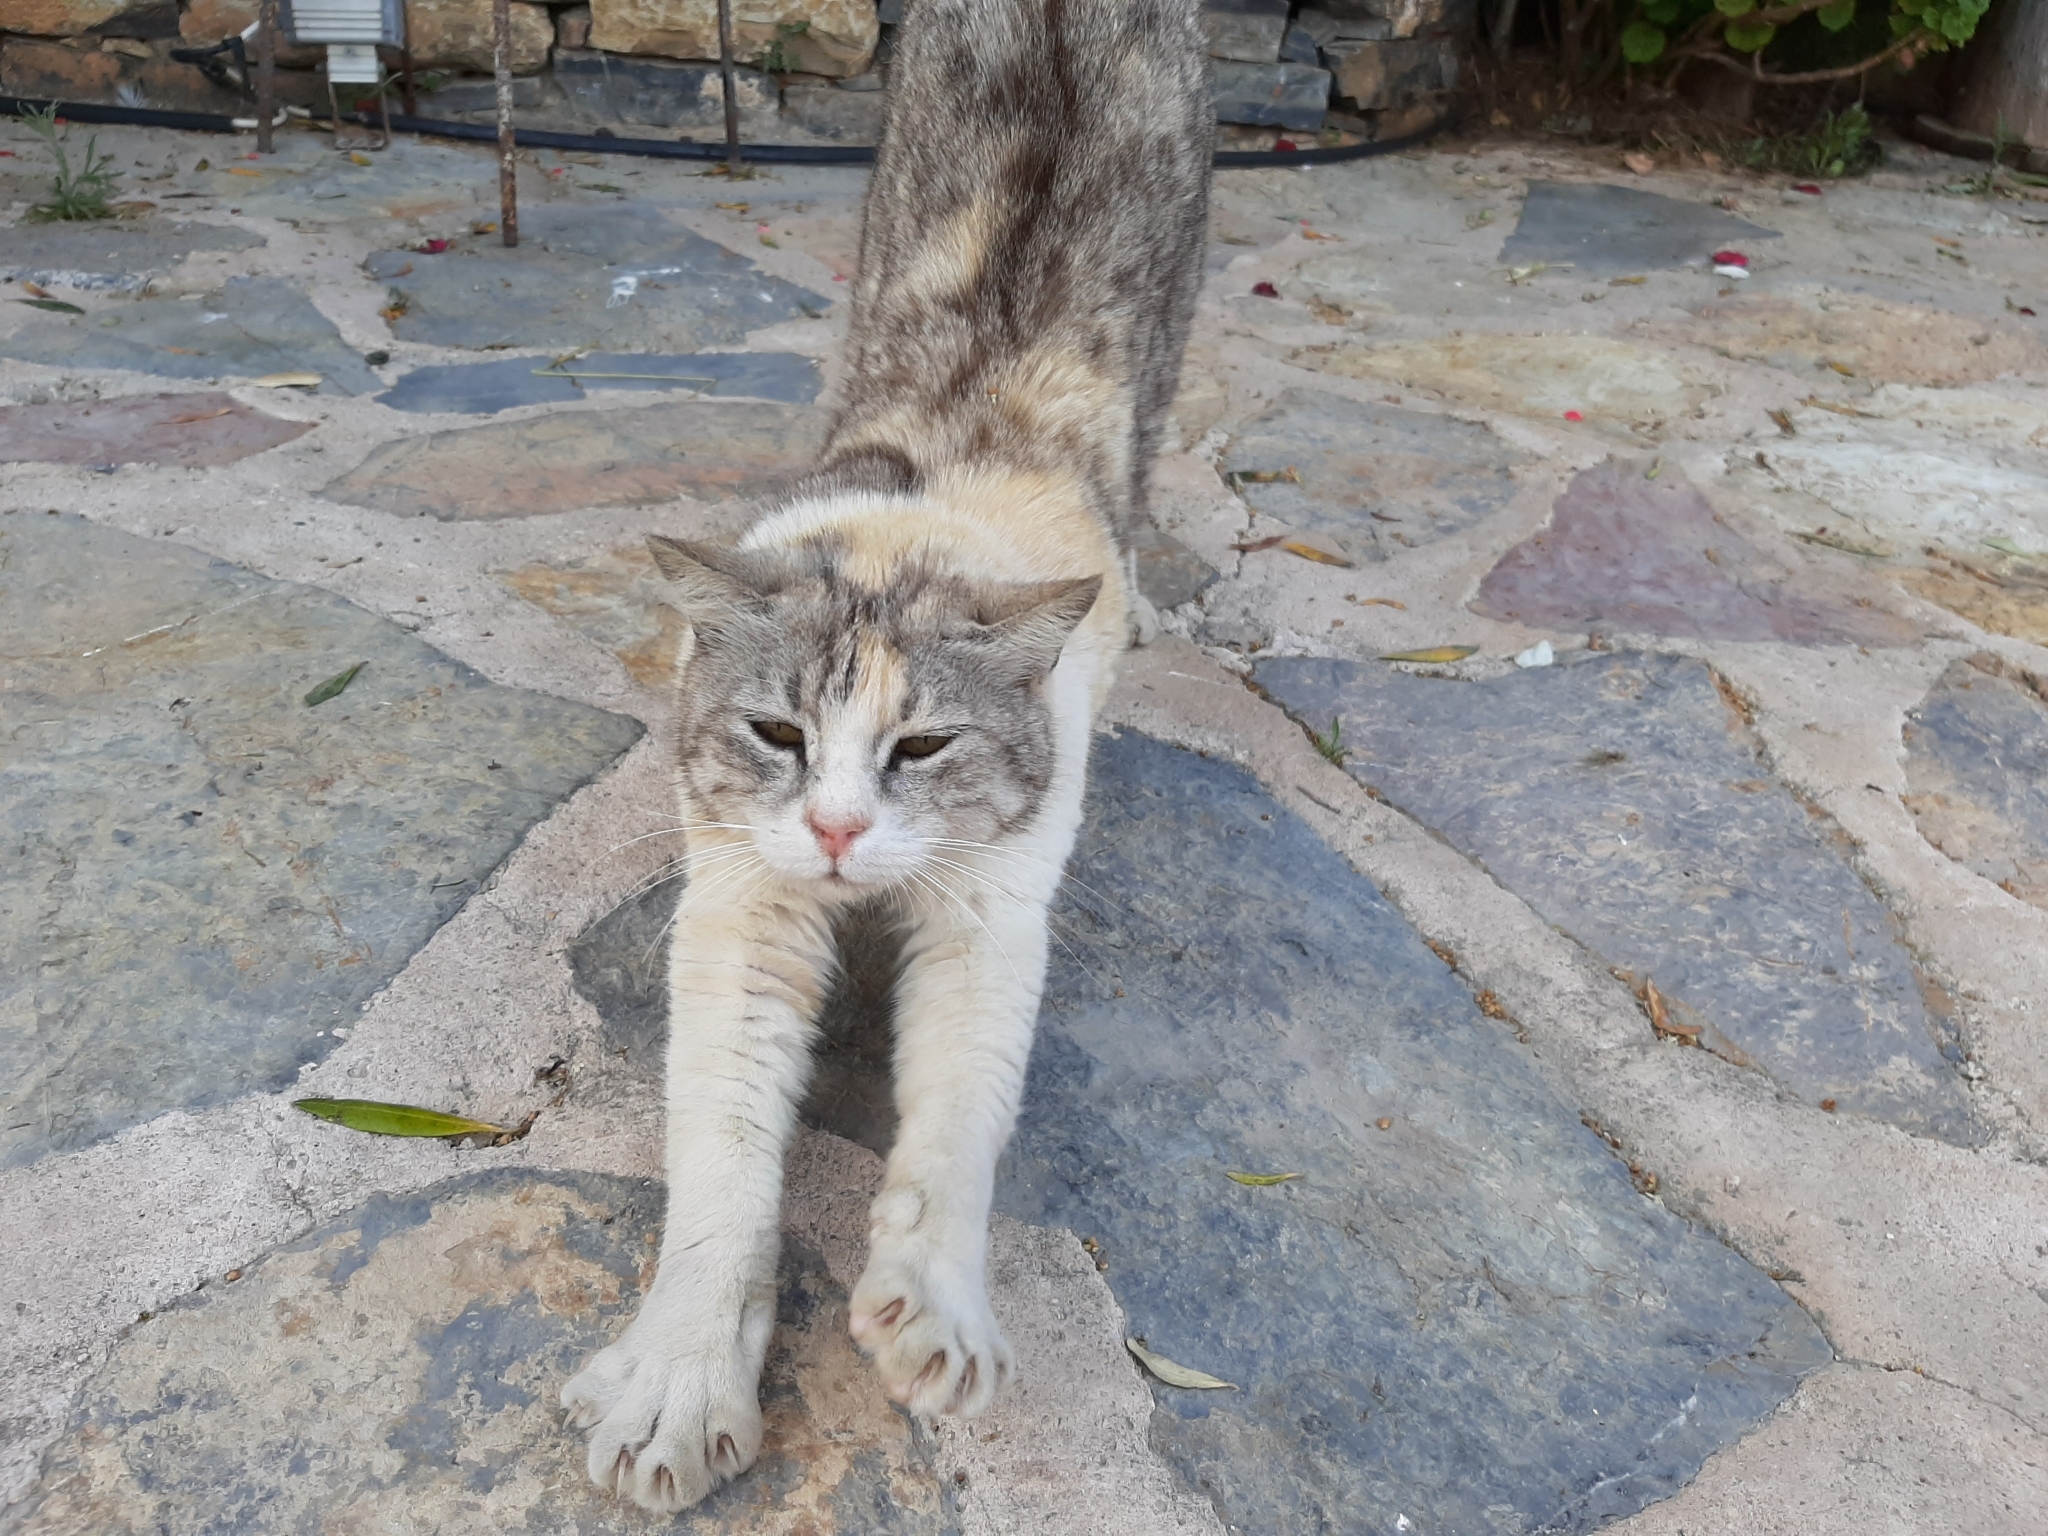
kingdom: Animalia
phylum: Chordata
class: Mammalia
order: Carnivora
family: Felidae
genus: Felis
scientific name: Felis catus
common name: Domestic cat
